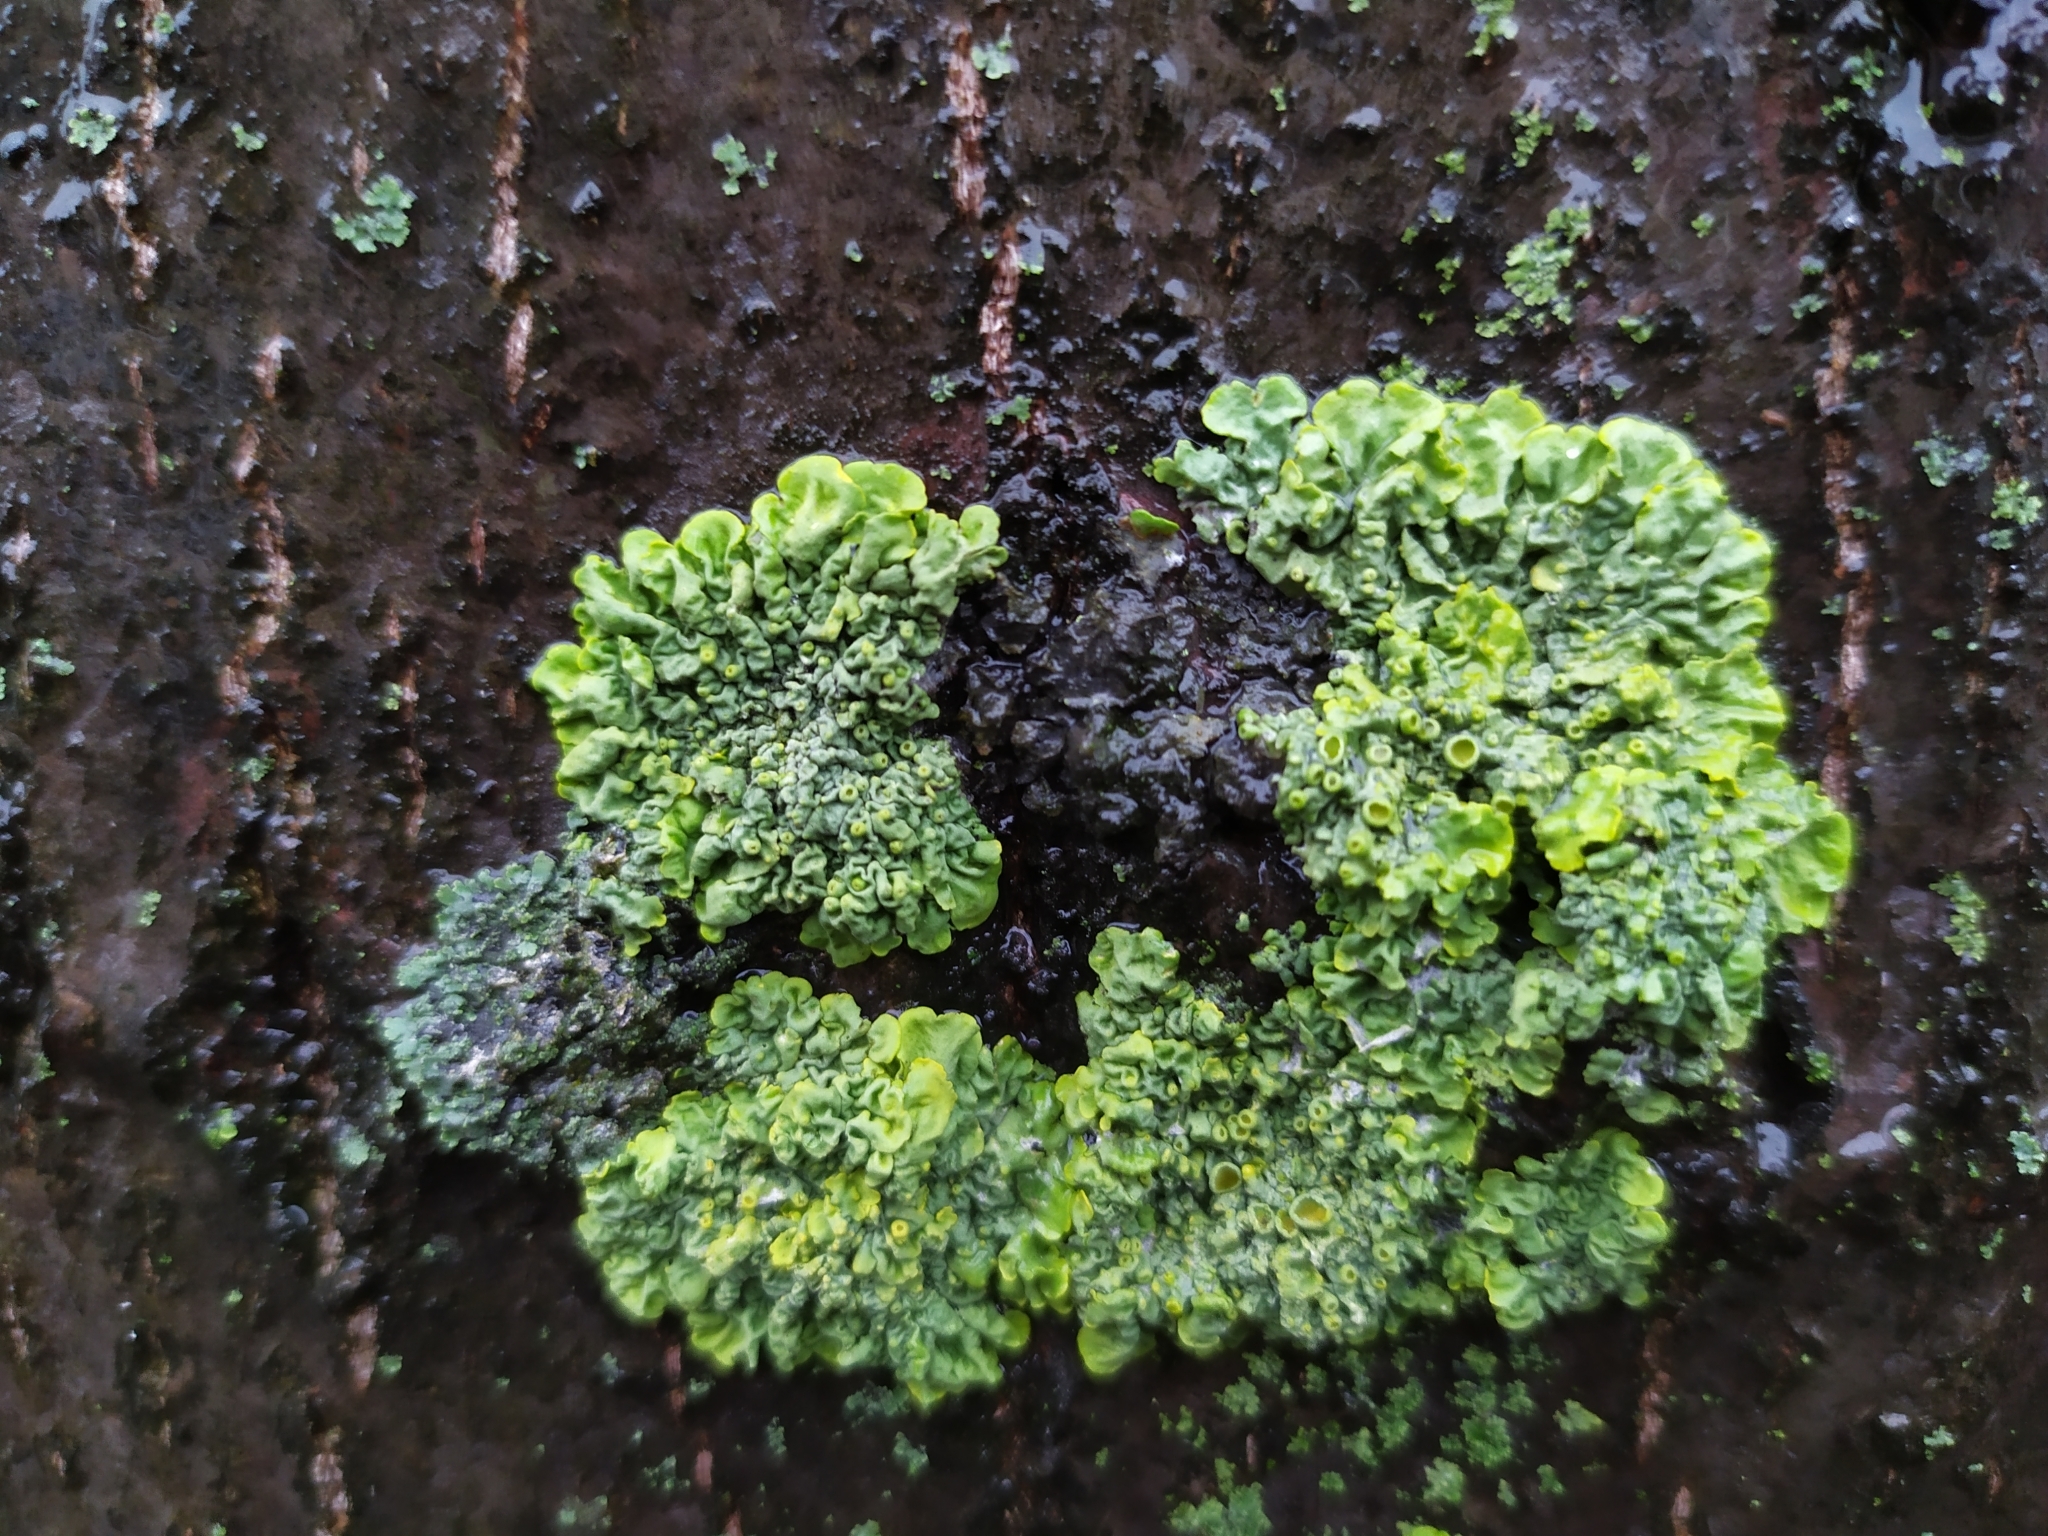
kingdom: Fungi
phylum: Ascomycota
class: Lecanoromycetes
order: Teloschistales
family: Teloschistaceae
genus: Xanthoria
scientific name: Xanthoria parietina
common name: Common orange lichen
